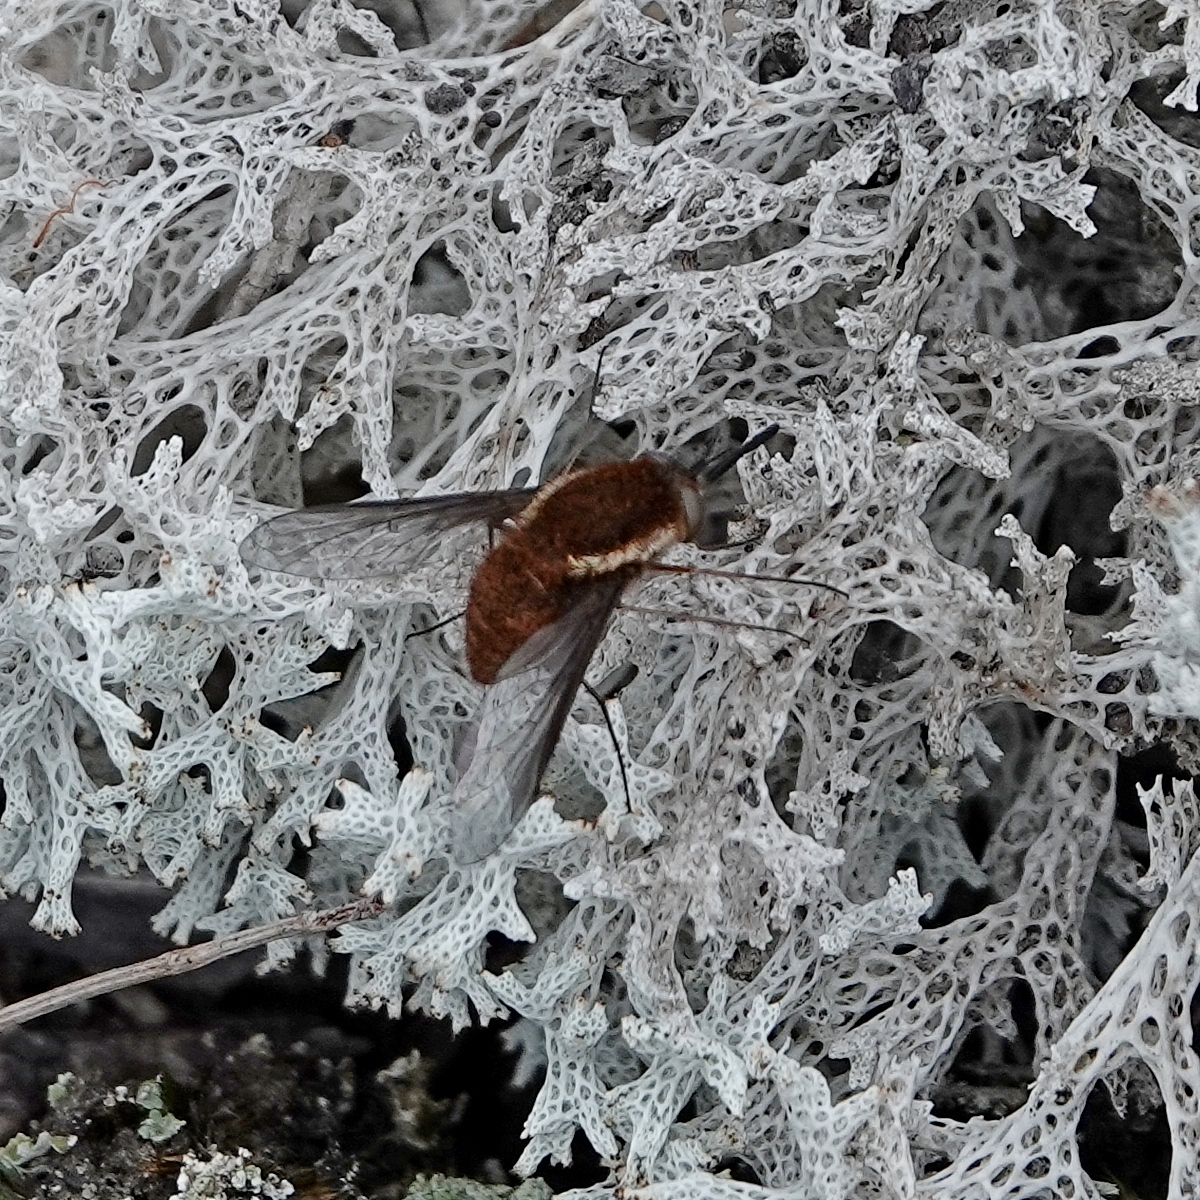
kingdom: Animalia
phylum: Arthropoda
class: Insecta
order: Diptera
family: Bombyliidae
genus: Staurostichus
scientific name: Staurostichus limbipennis
